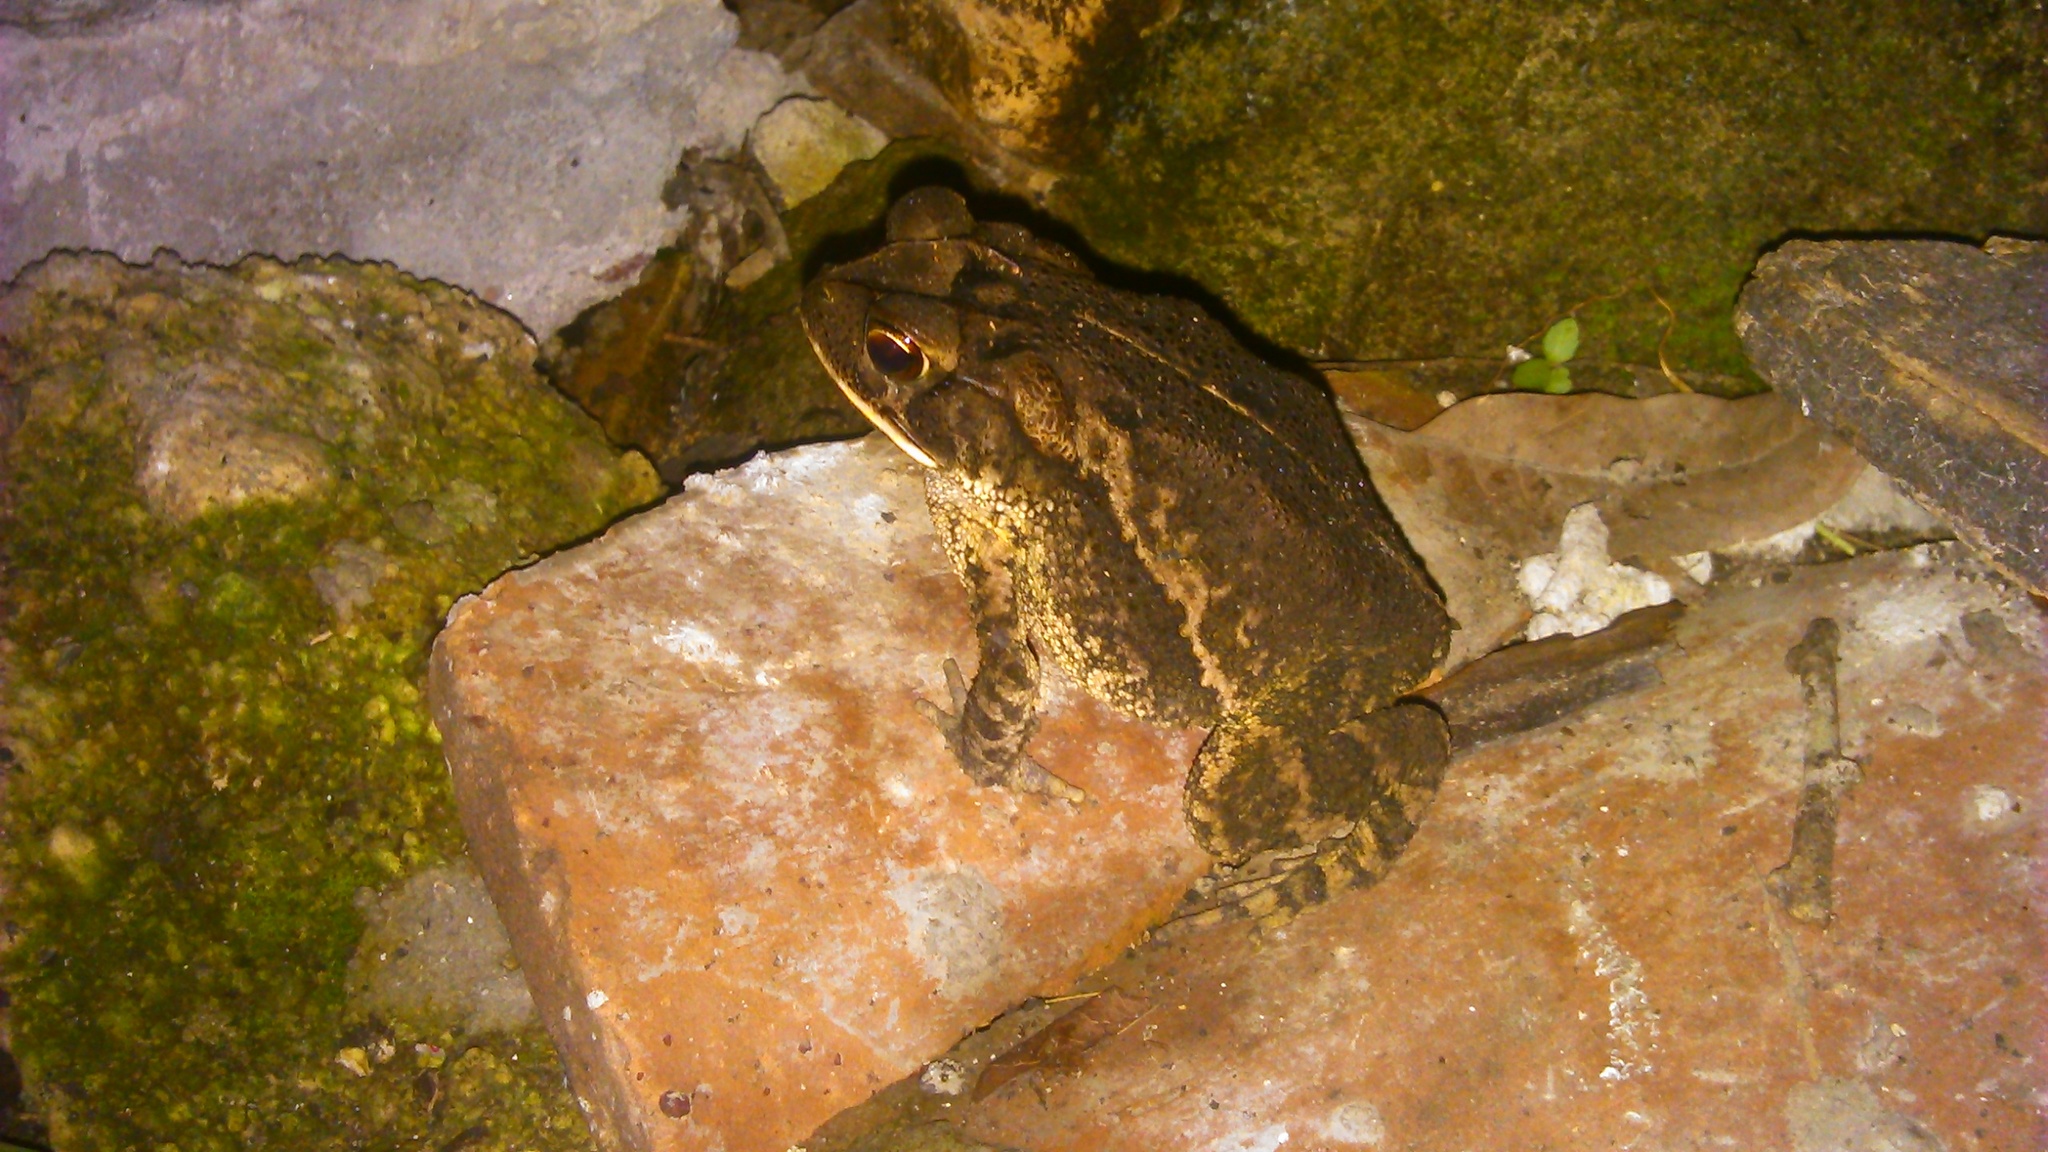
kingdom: Animalia
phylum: Chordata
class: Amphibia
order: Anura
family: Bufonidae
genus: Incilius
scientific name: Incilius valliceps
